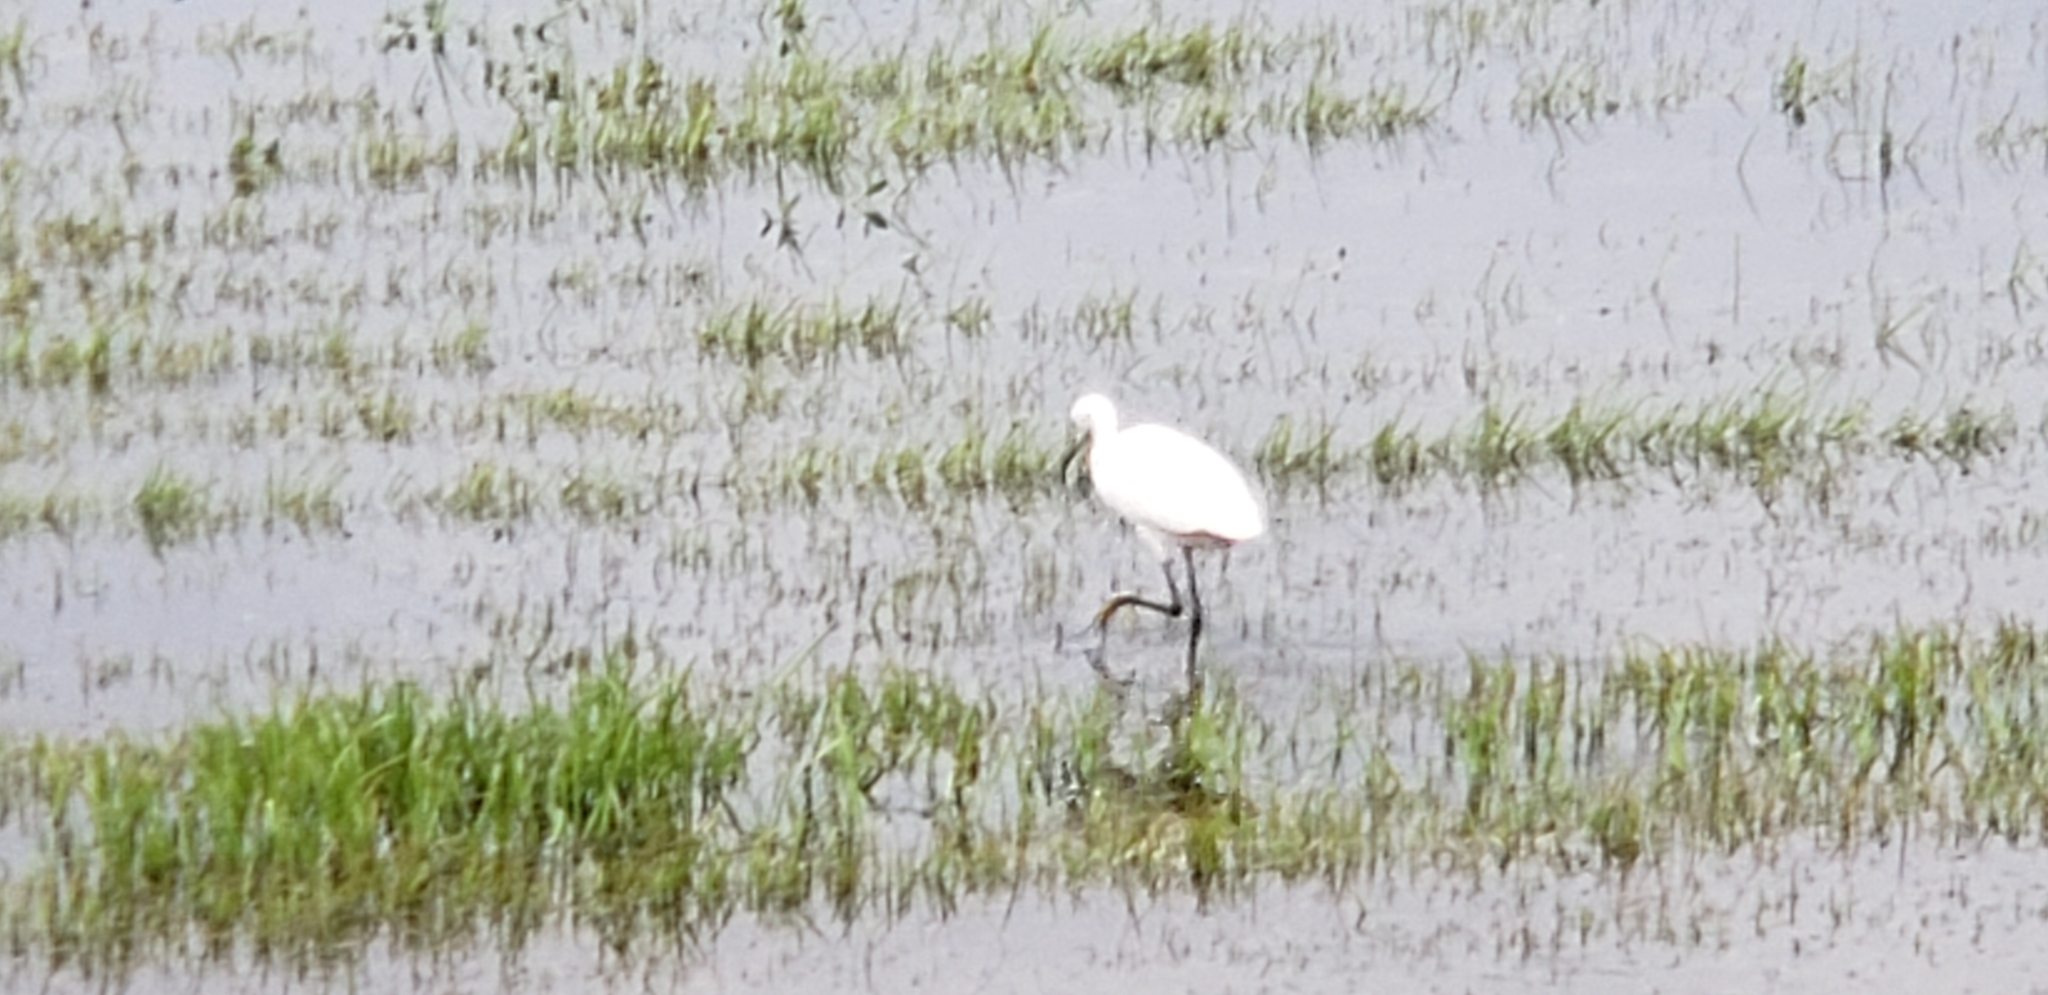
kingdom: Animalia
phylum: Chordata
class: Aves
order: Pelecaniformes
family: Ardeidae
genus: Egretta
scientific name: Egretta thula
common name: Snowy egret
